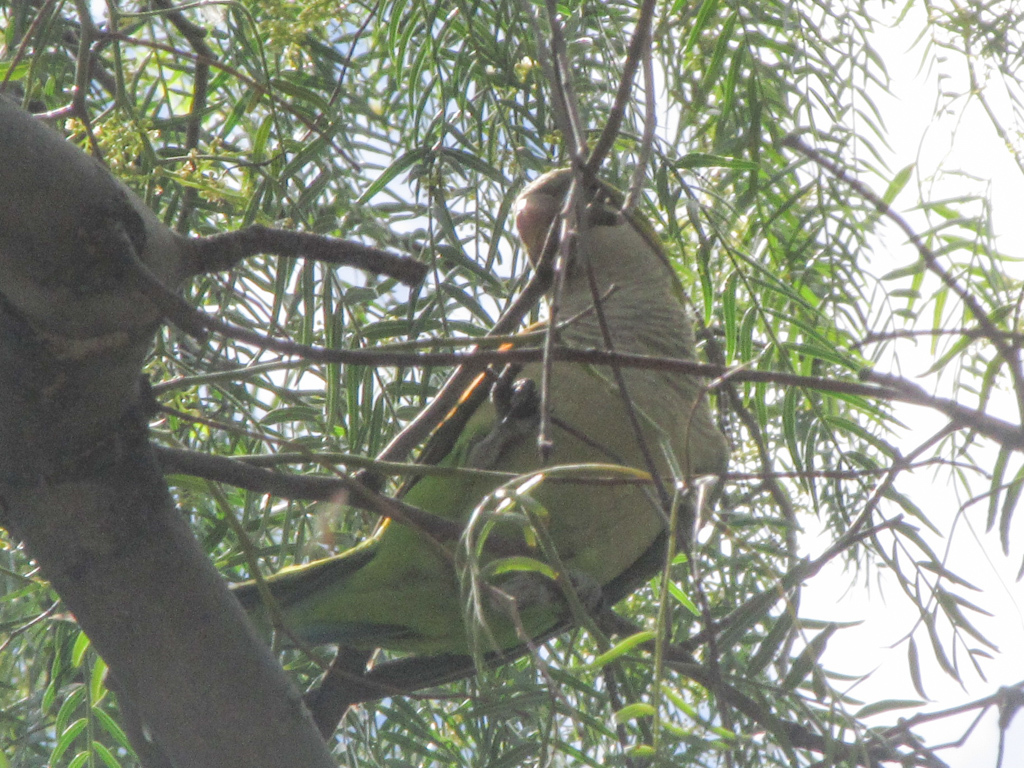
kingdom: Animalia
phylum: Chordata
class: Aves
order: Psittaciformes
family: Psittacidae
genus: Myiopsitta
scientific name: Myiopsitta monachus
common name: Monk parakeet
